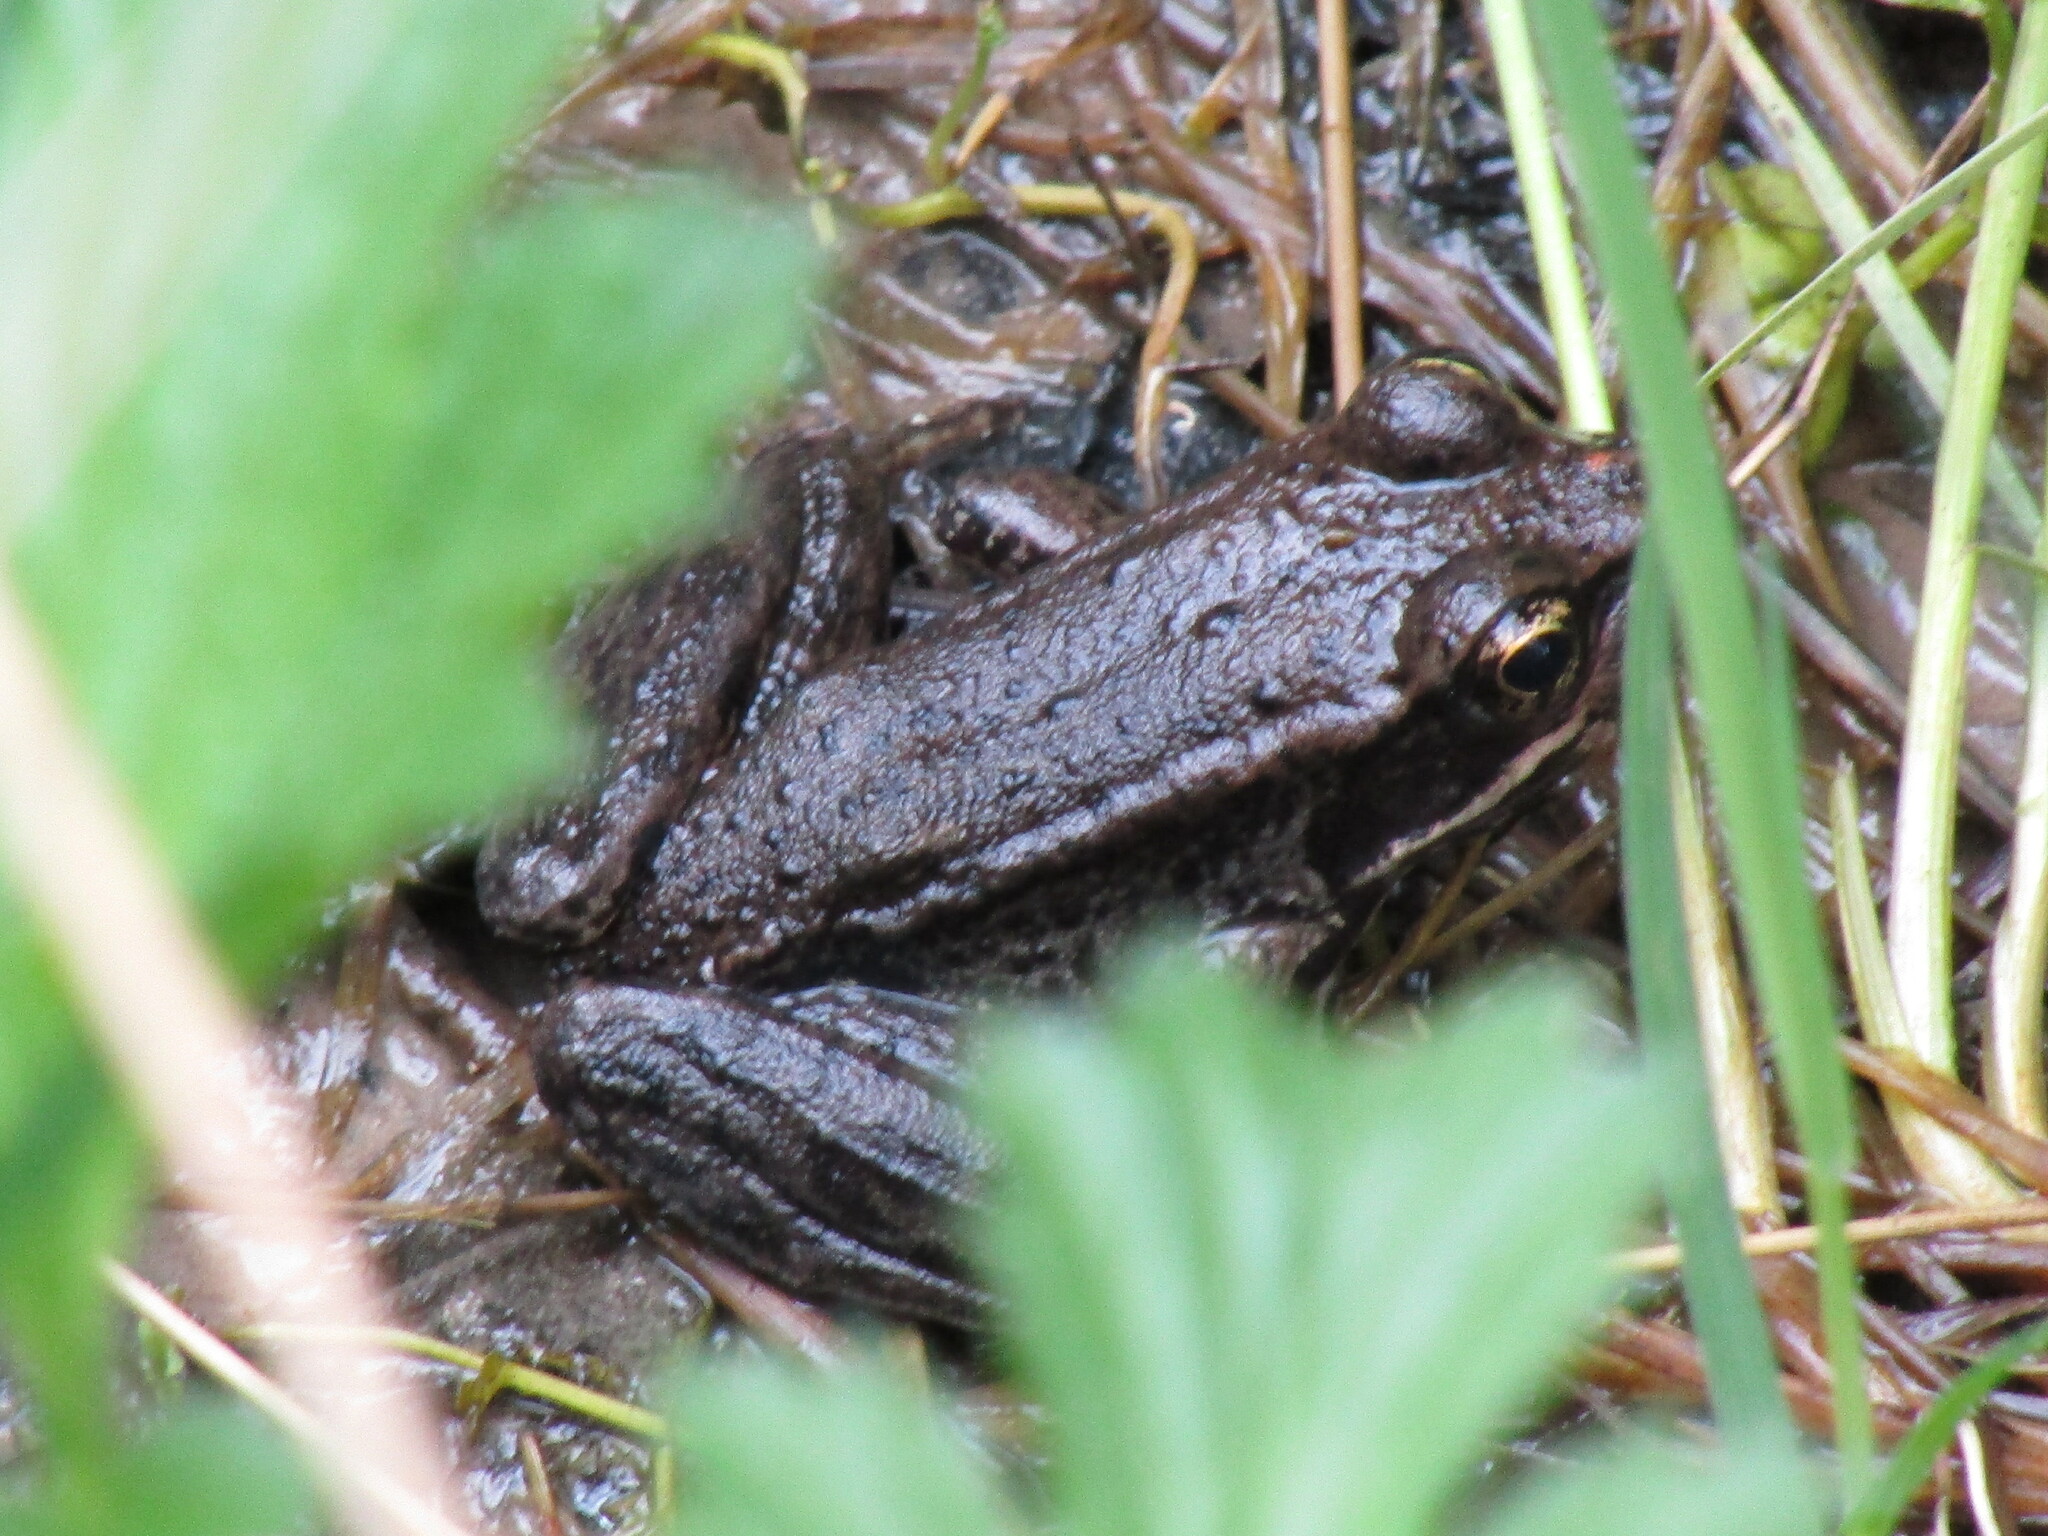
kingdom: Animalia
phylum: Chordata
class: Amphibia
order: Anura
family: Ranidae
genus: Rana
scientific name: Rana aurora
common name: Red-legged frog
